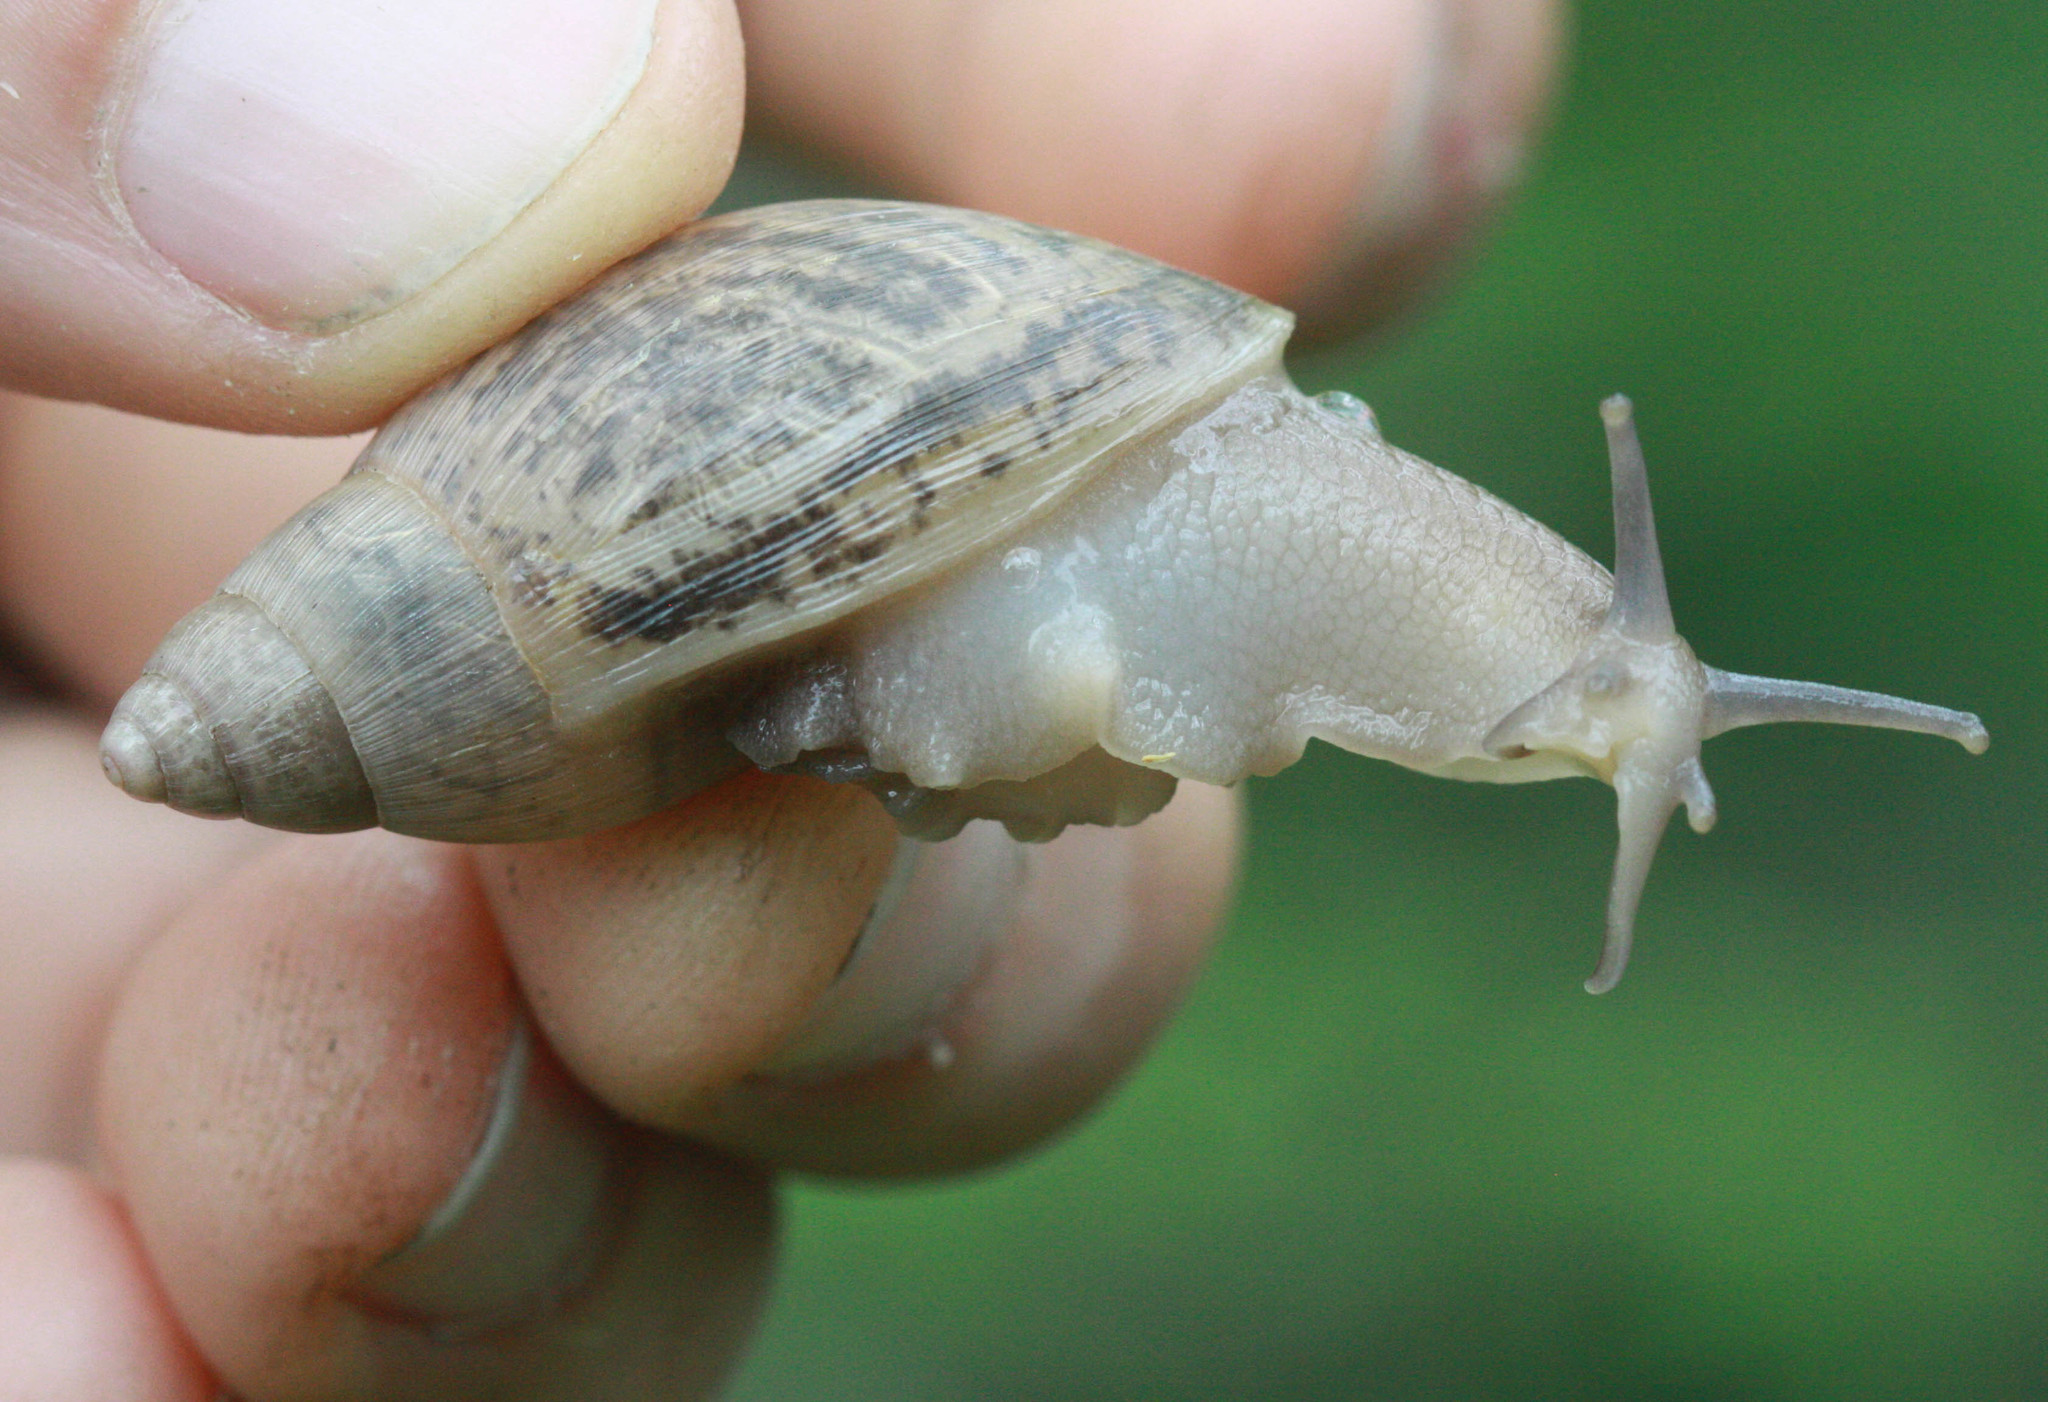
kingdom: Animalia
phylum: Mollusca
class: Gastropoda
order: Stylommatophora
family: Spiraxidae
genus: Euglandina
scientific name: Euglandina rosea
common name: Rosy wolfsnail
